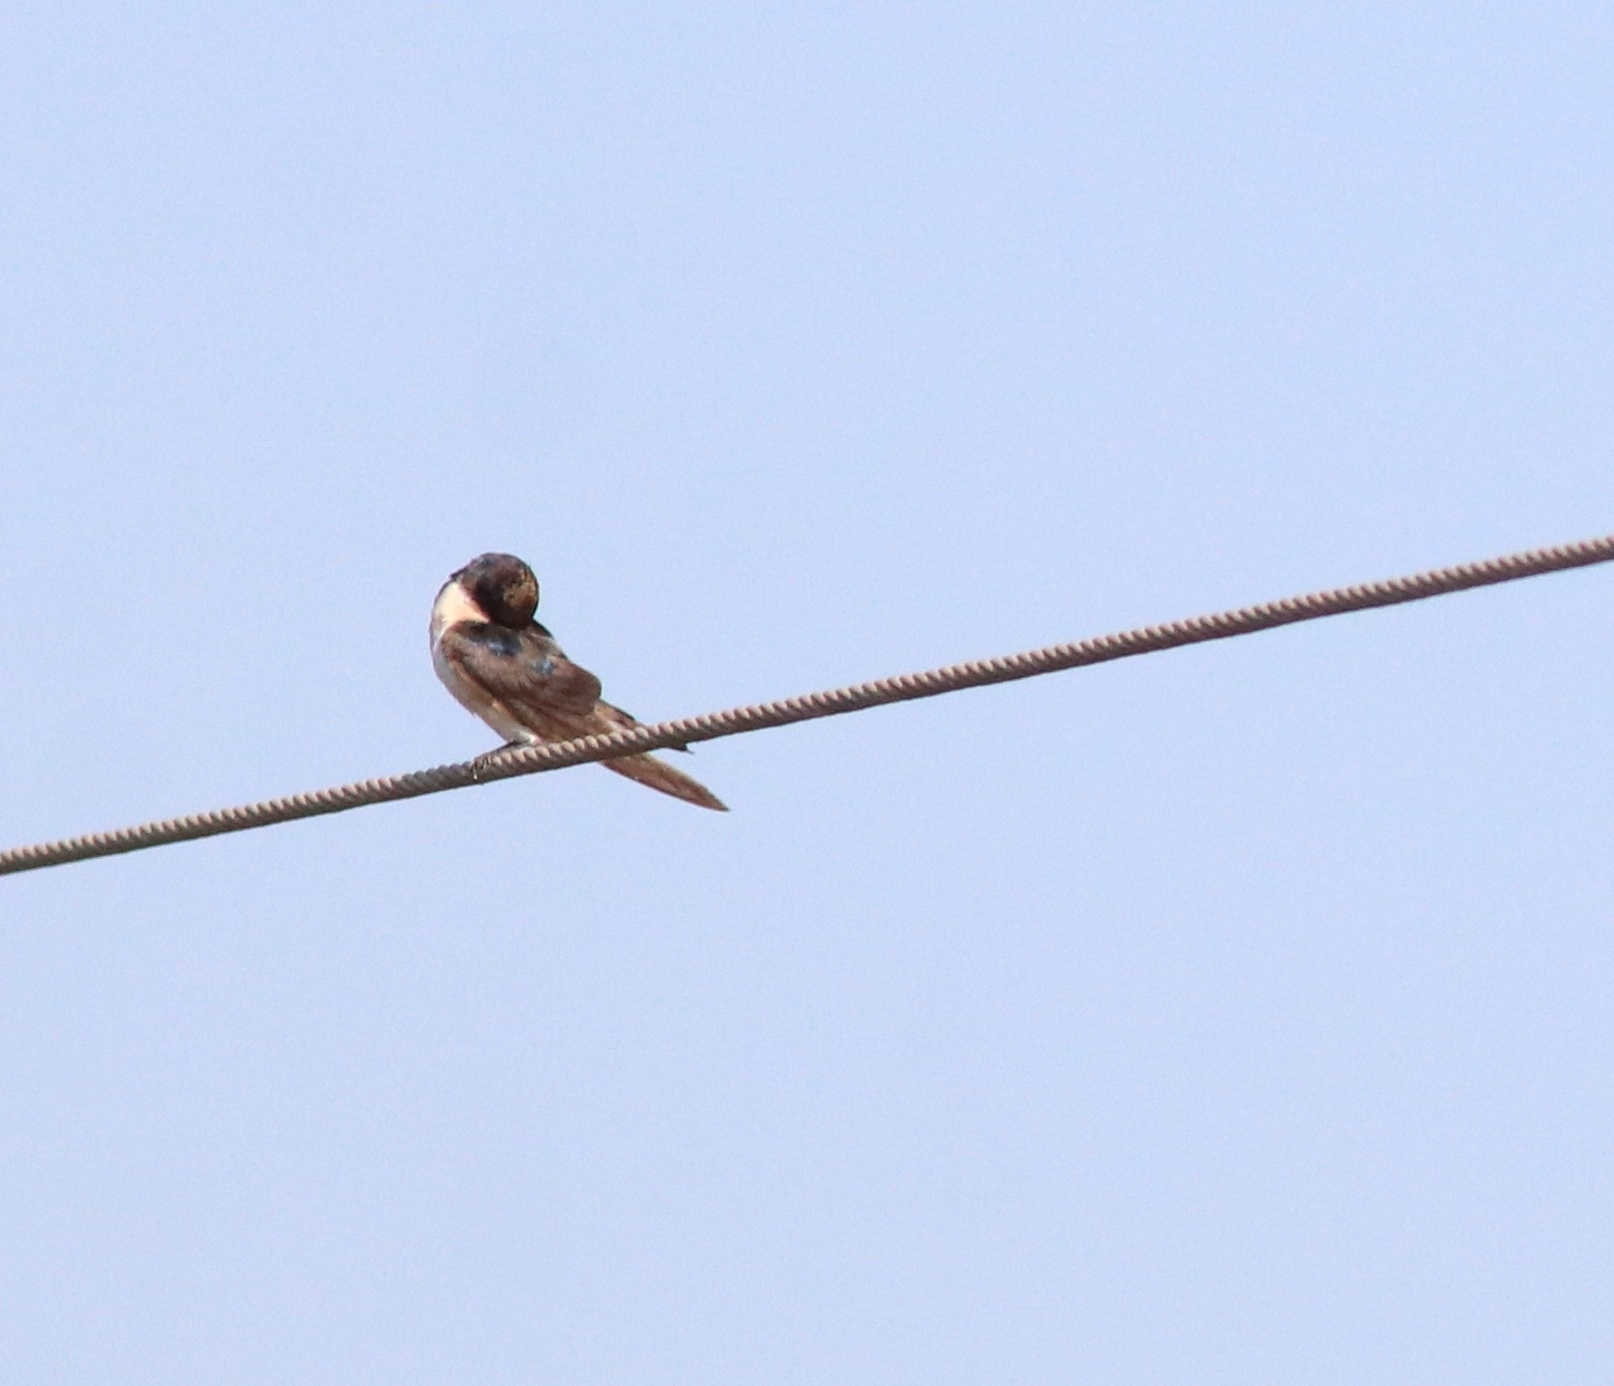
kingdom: Animalia
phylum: Chordata
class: Aves
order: Passeriformes
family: Hirundinidae
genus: Hirundo
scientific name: Hirundo smithii
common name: Wire-tailed swallow
